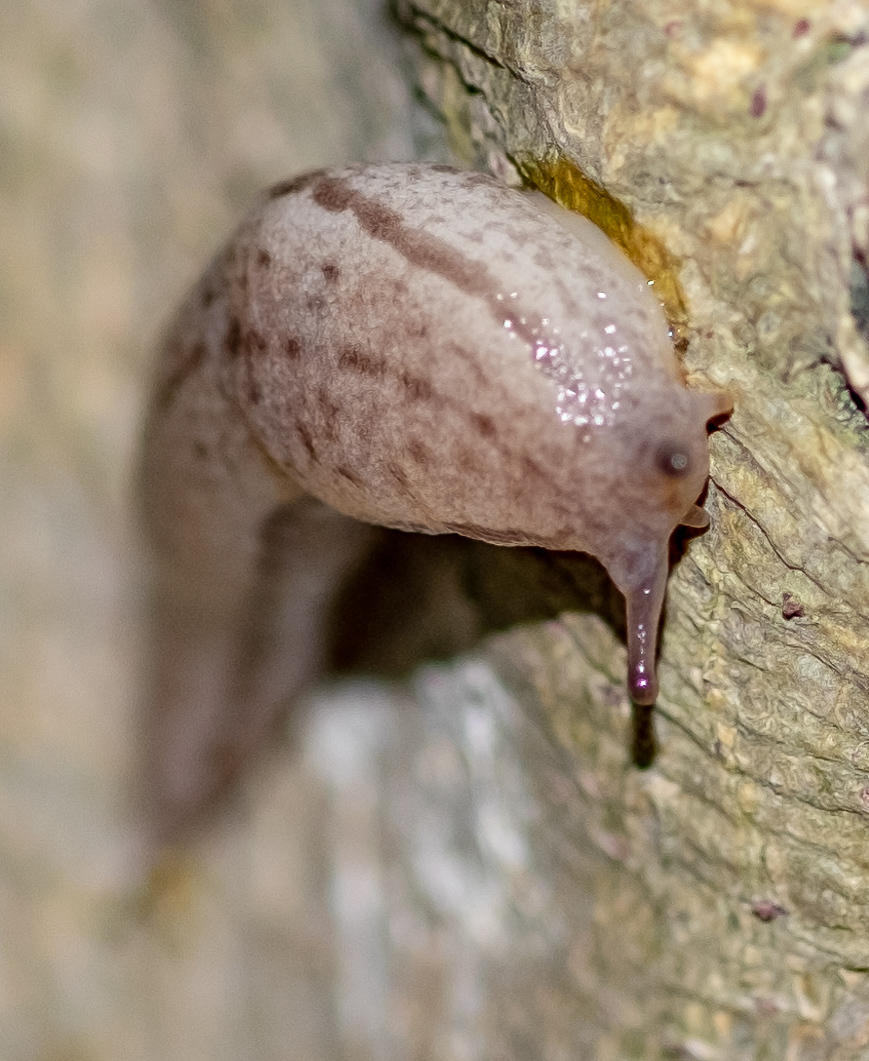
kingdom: Animalia
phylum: Mollusca
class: Gastropoda
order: Stylommatophora
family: Philomycidae
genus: Meghimatium
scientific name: Meghimatium bilineatum
